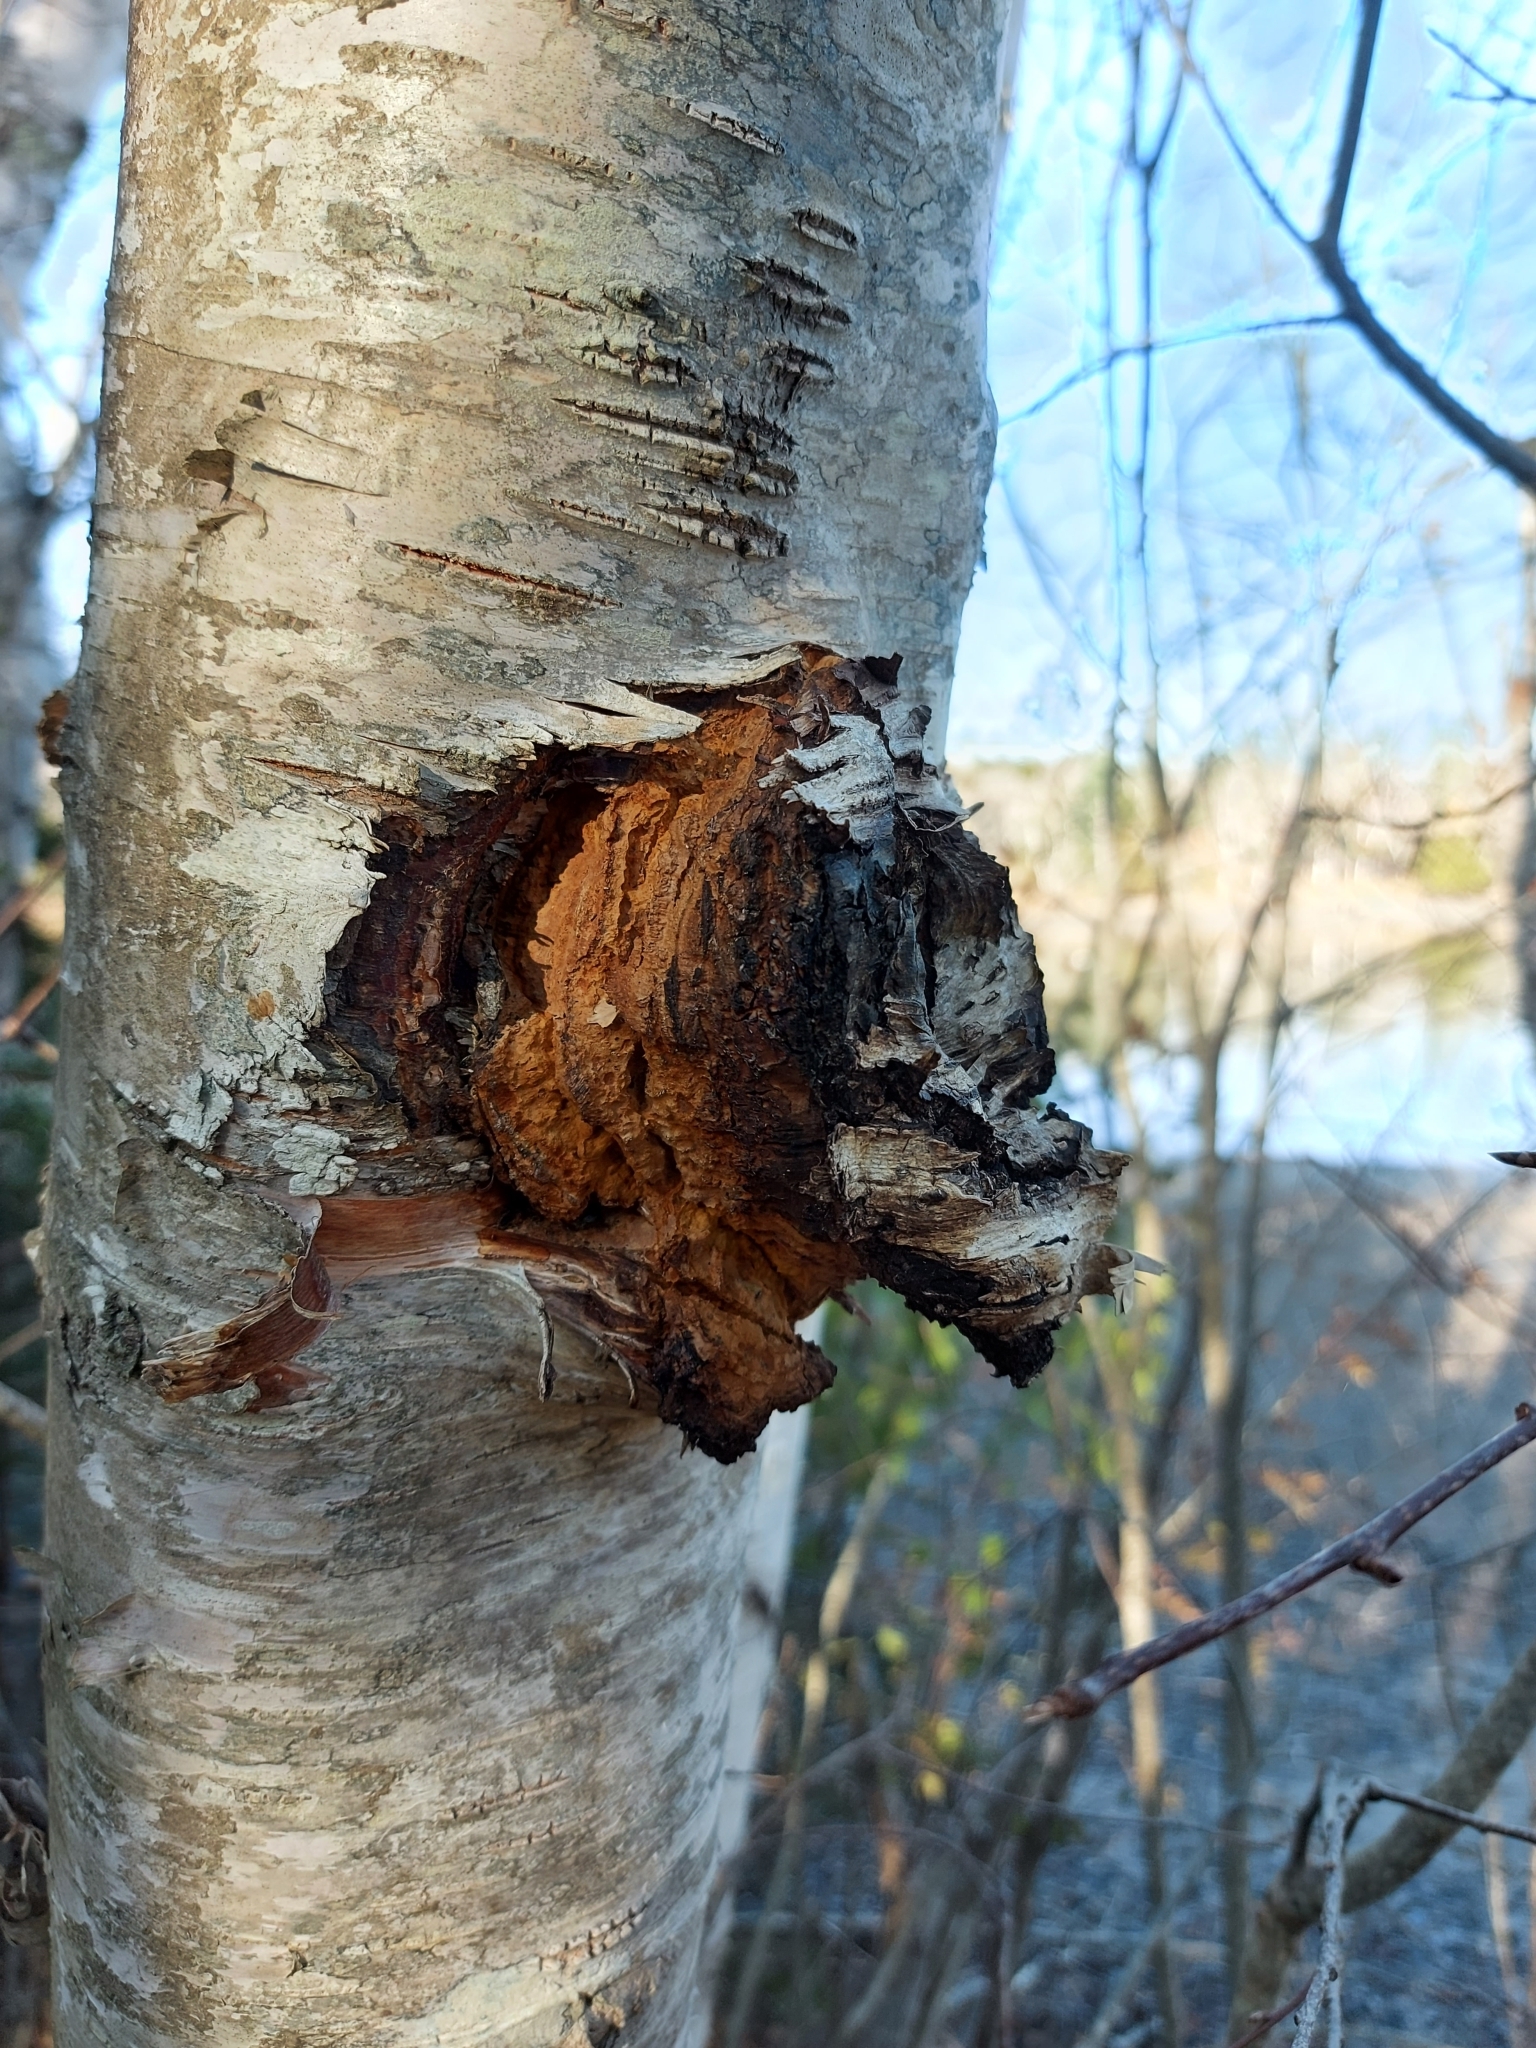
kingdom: Fungi
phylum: Basidiomycota
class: Agaricomycetes
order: Hymenochaetales
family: Hymenochaetaceae
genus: Inonotus
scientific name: Inonotus obliquus
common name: Chaga
